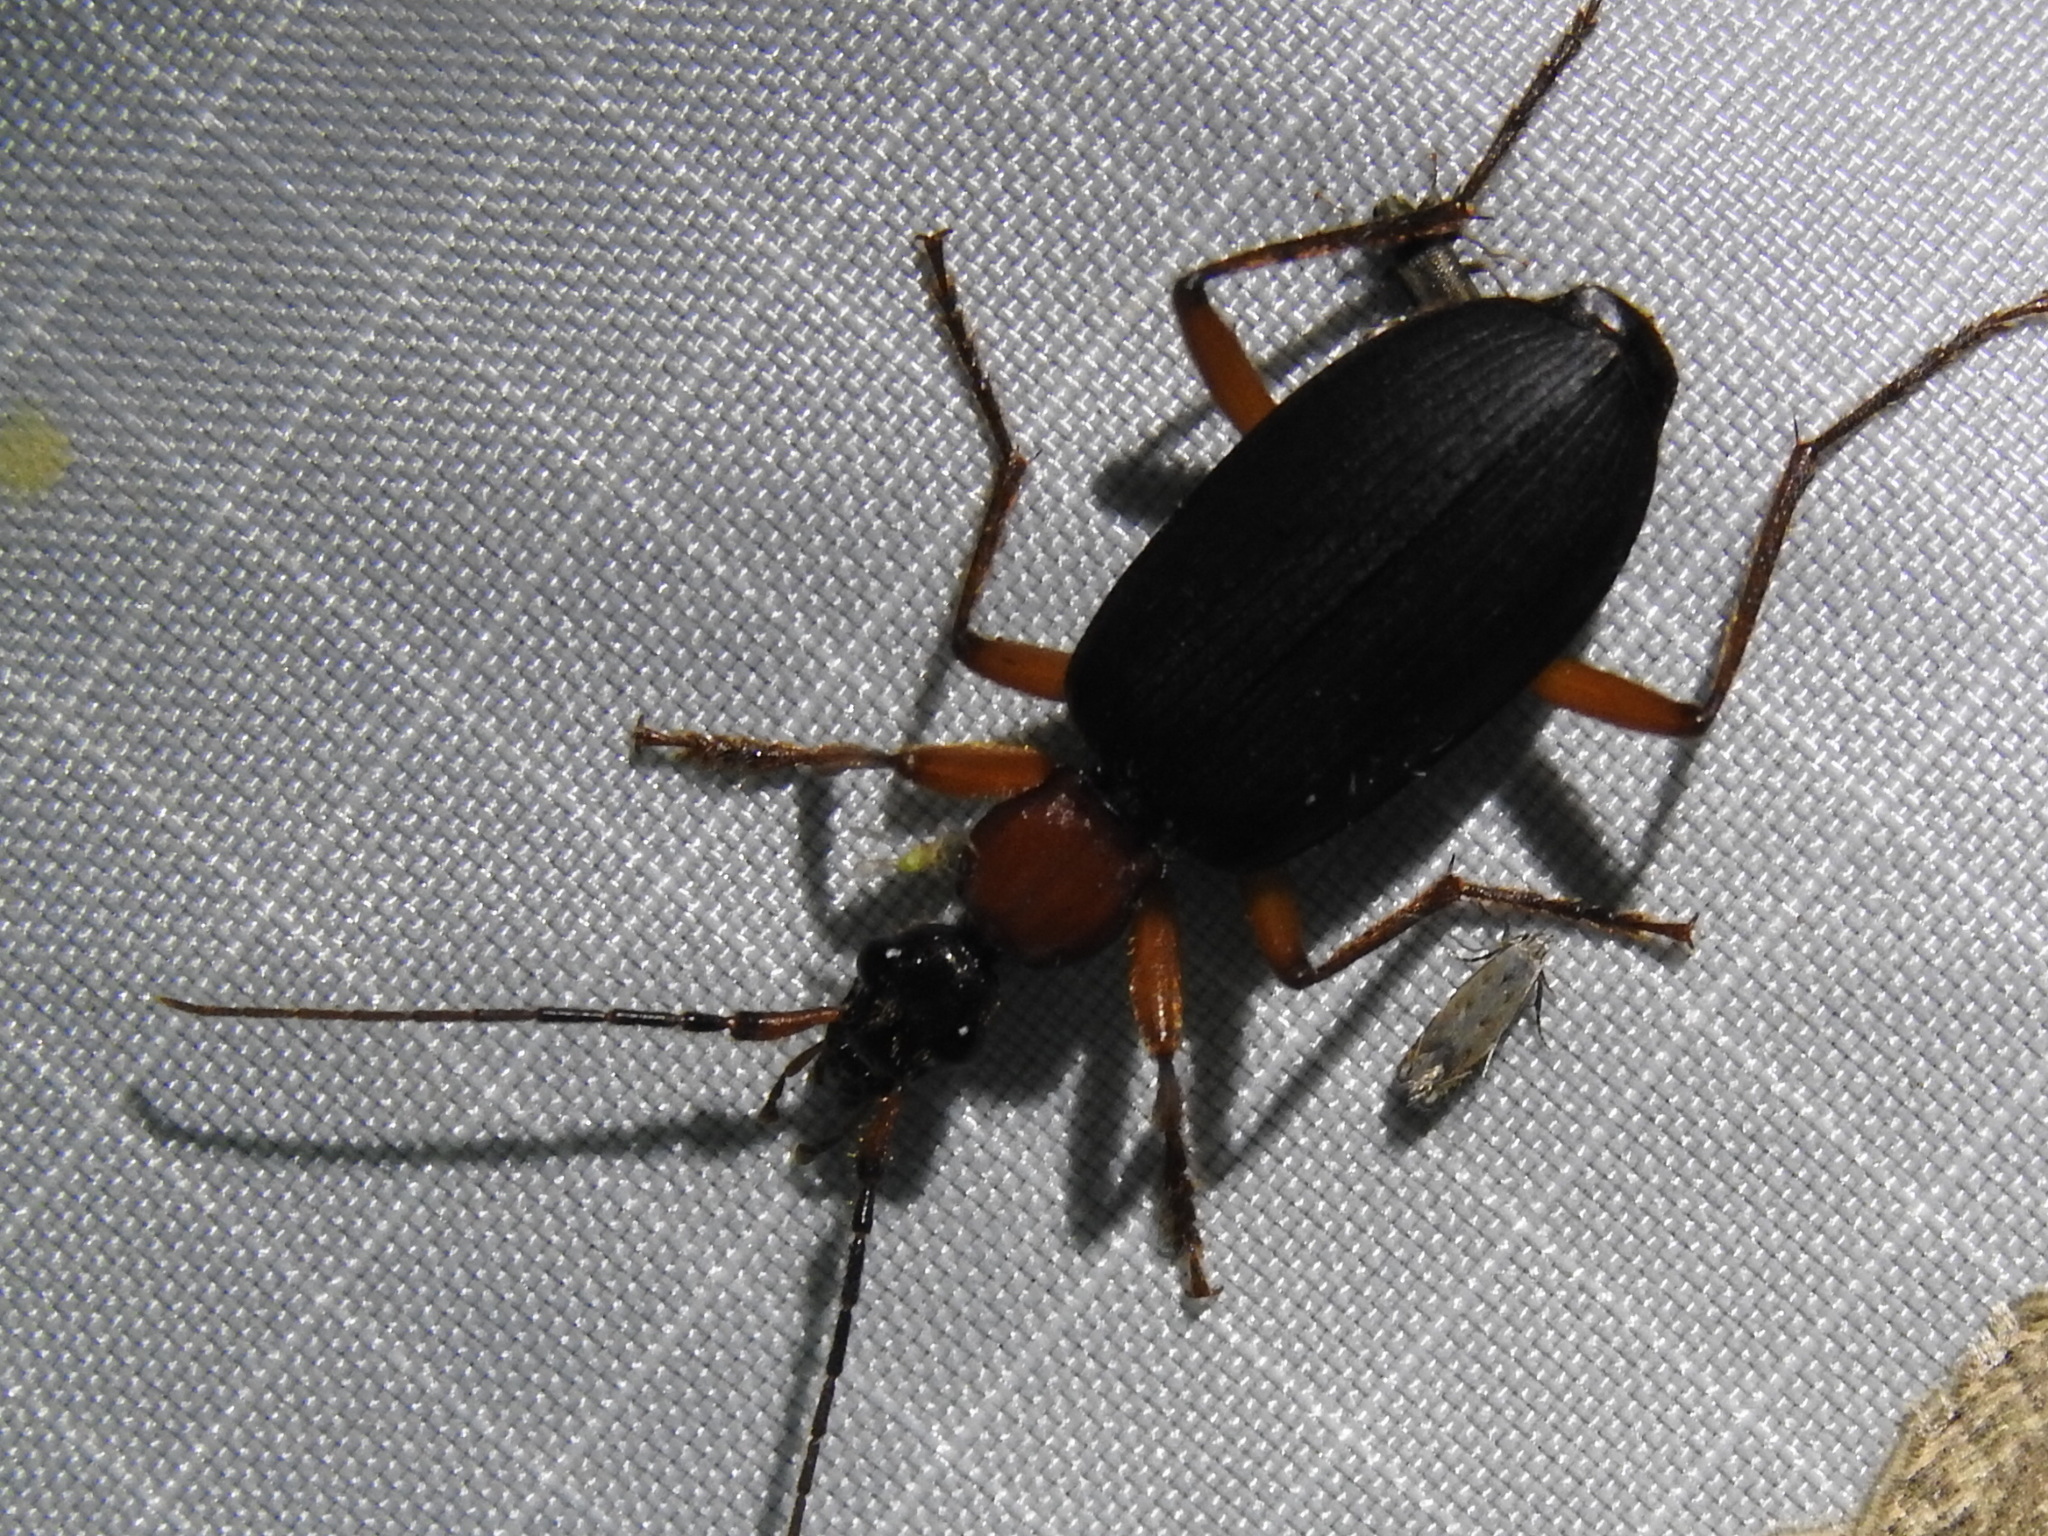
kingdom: Animalia
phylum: Arthropoda
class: Insecta
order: Coleoptera
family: Carabidae
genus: Galerita
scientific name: Galerita bicolor
